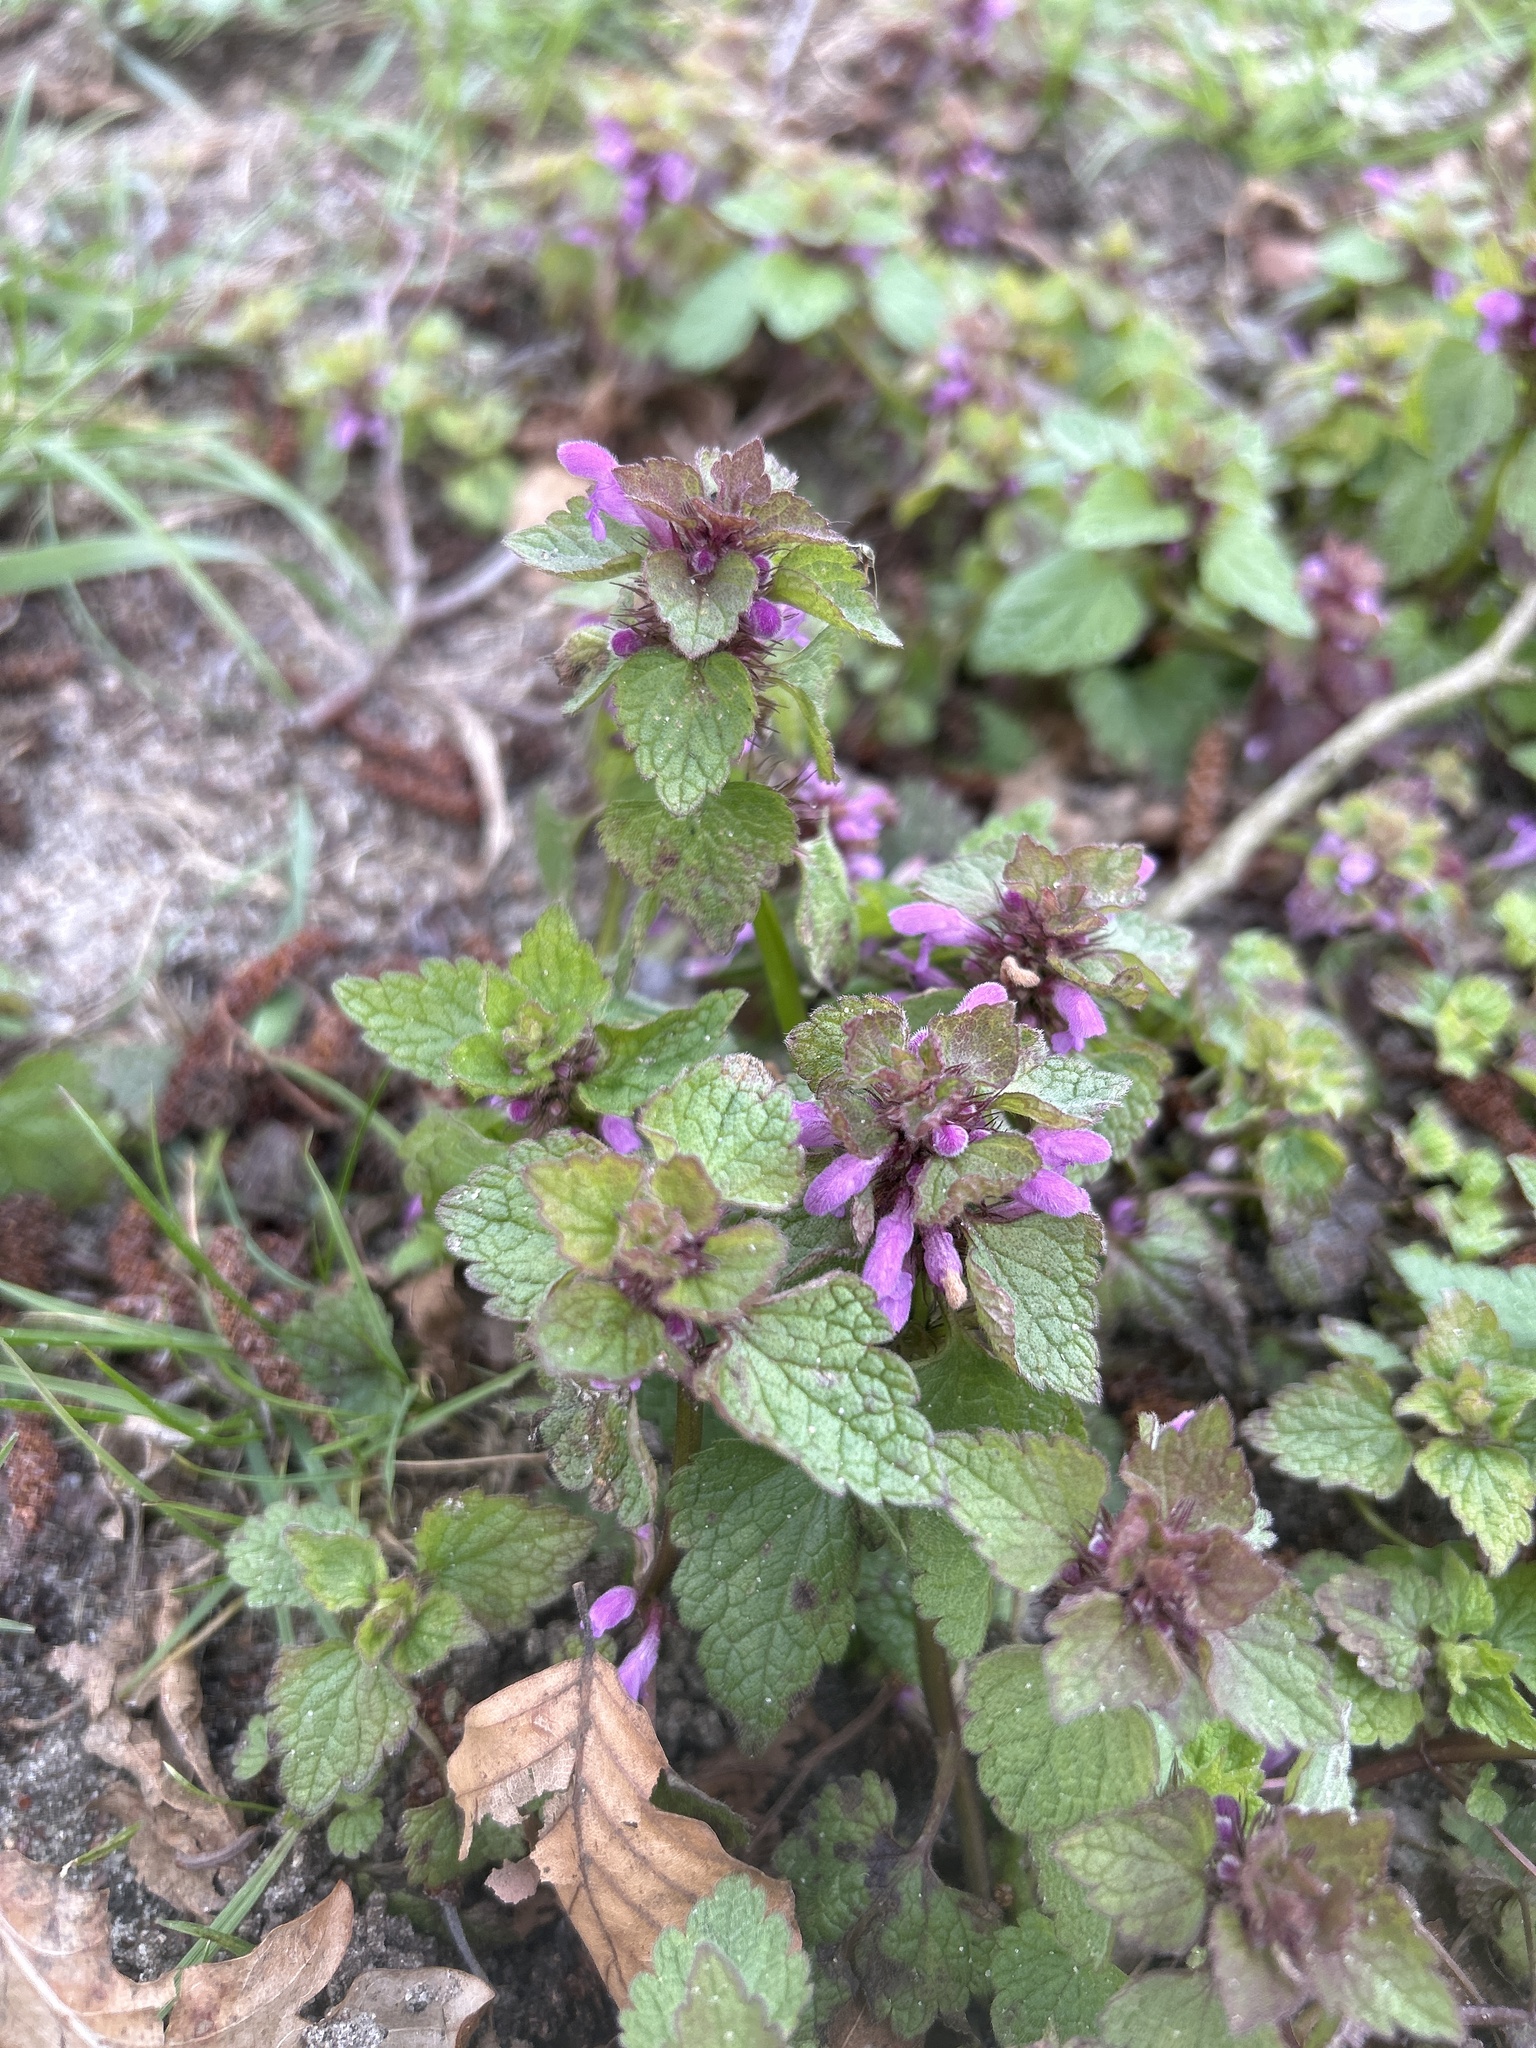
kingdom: Plantae
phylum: Tracheophyta
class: Magnoliopsida
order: Lamiales
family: Lamiaceae
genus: Lamium
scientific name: Lamium purpureum
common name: Red dead-nettle
